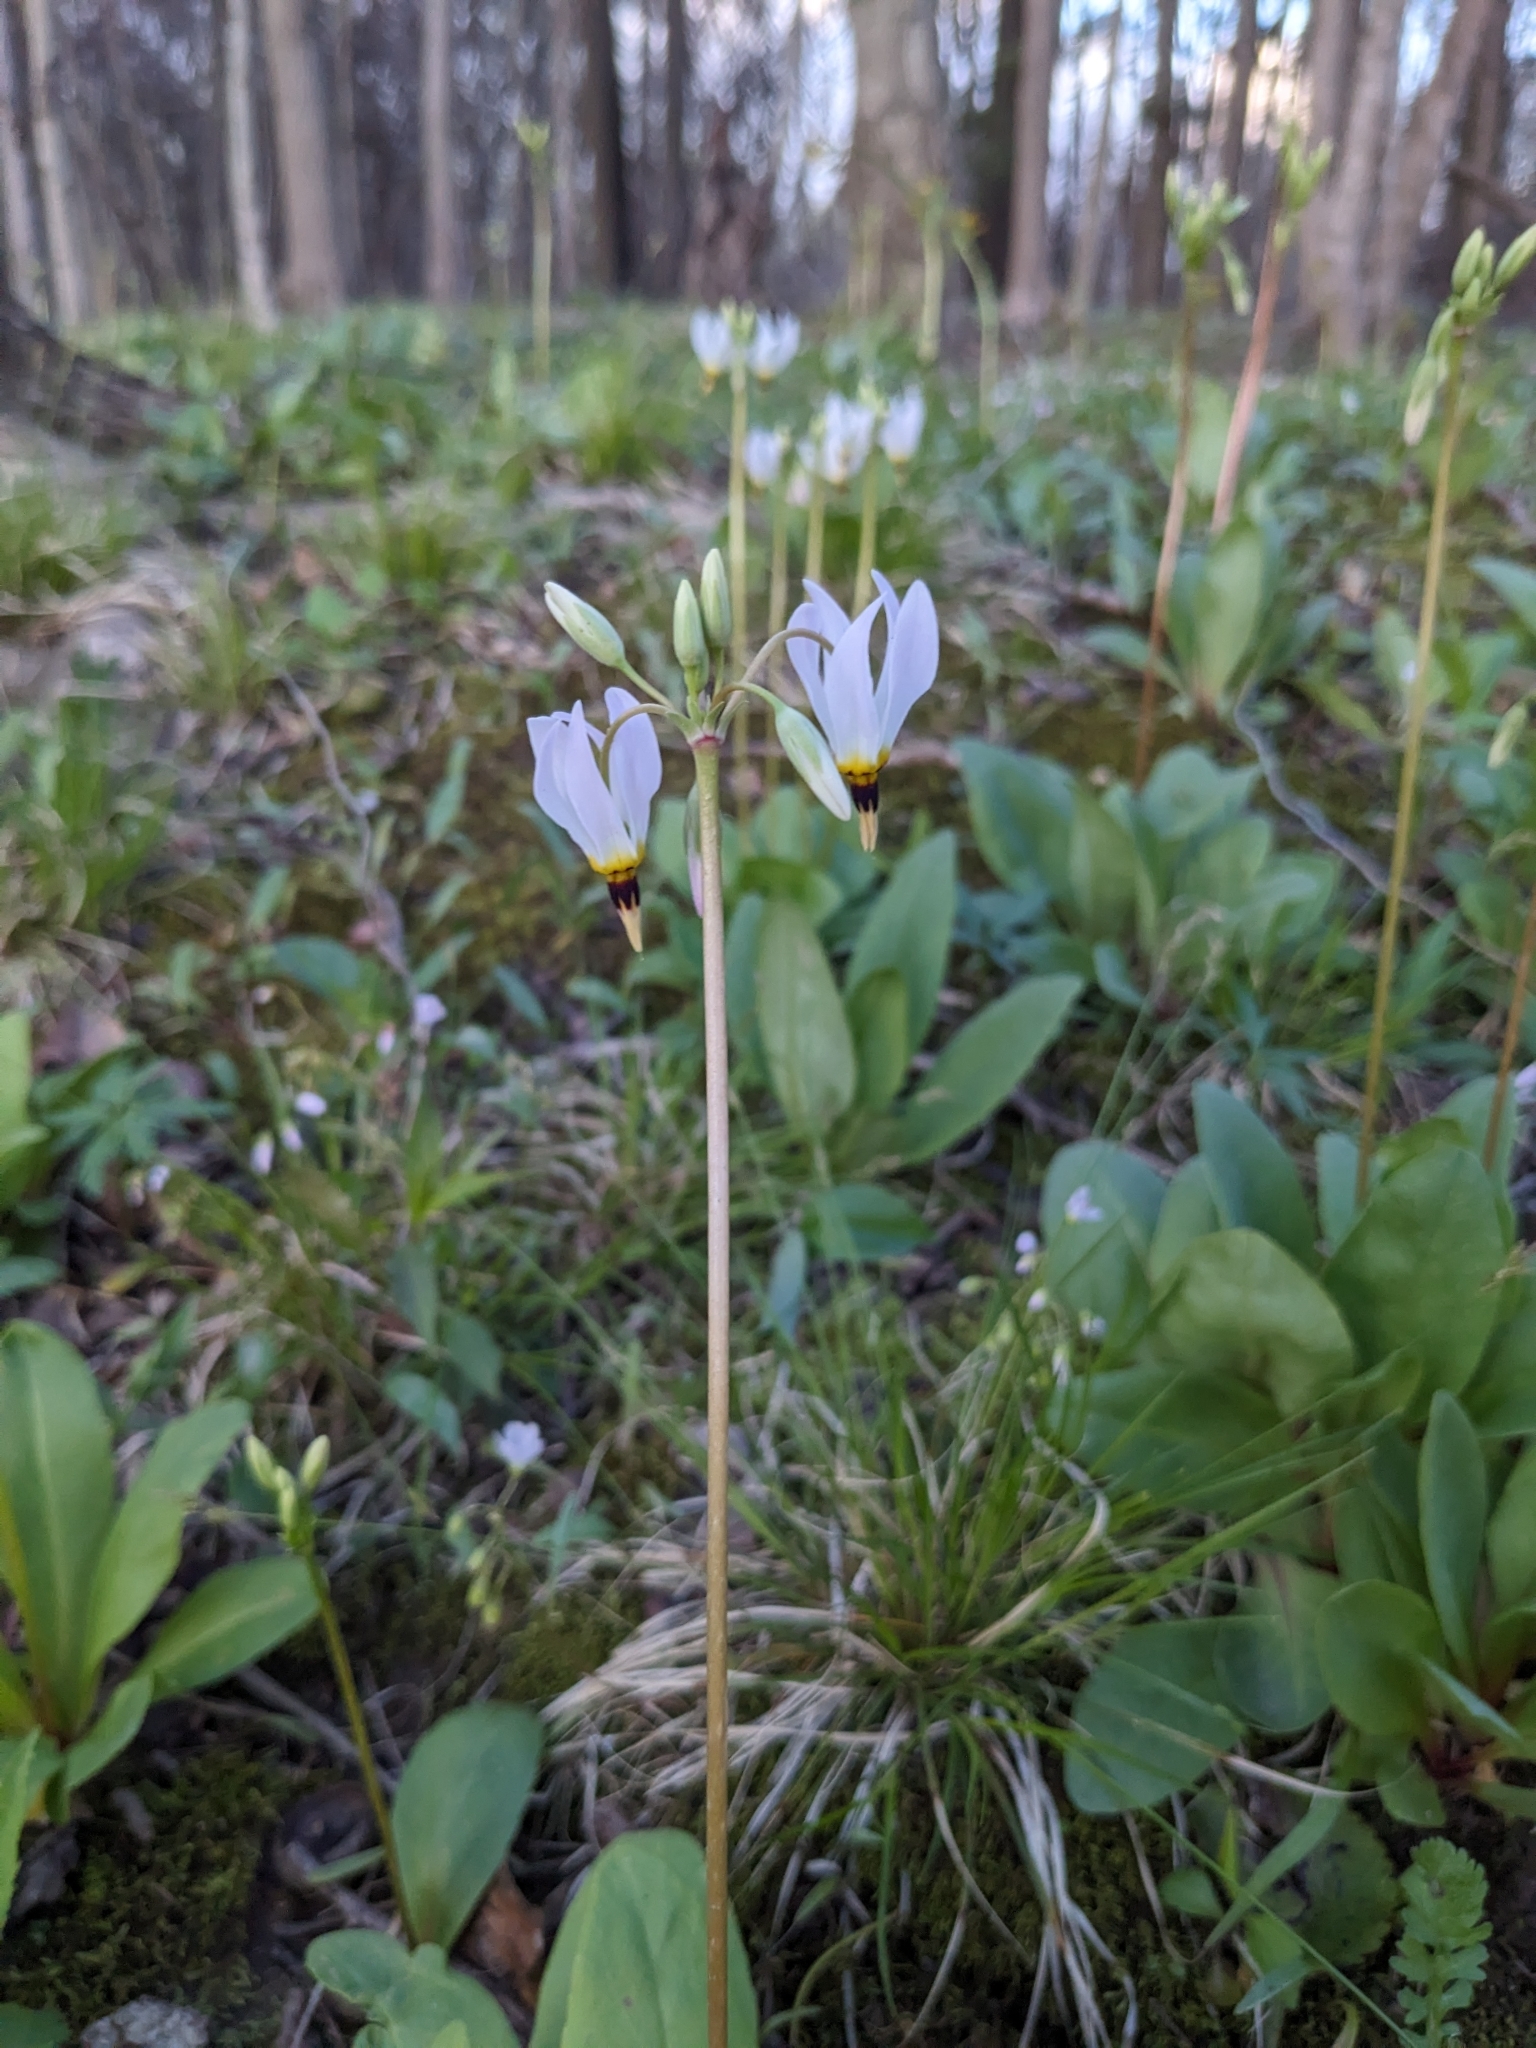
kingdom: Plantae
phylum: Tracheophyta
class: Magnoliopsida
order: Ericales
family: Primulaceae
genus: Dodecatheon
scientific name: Dodecatheon meadia
